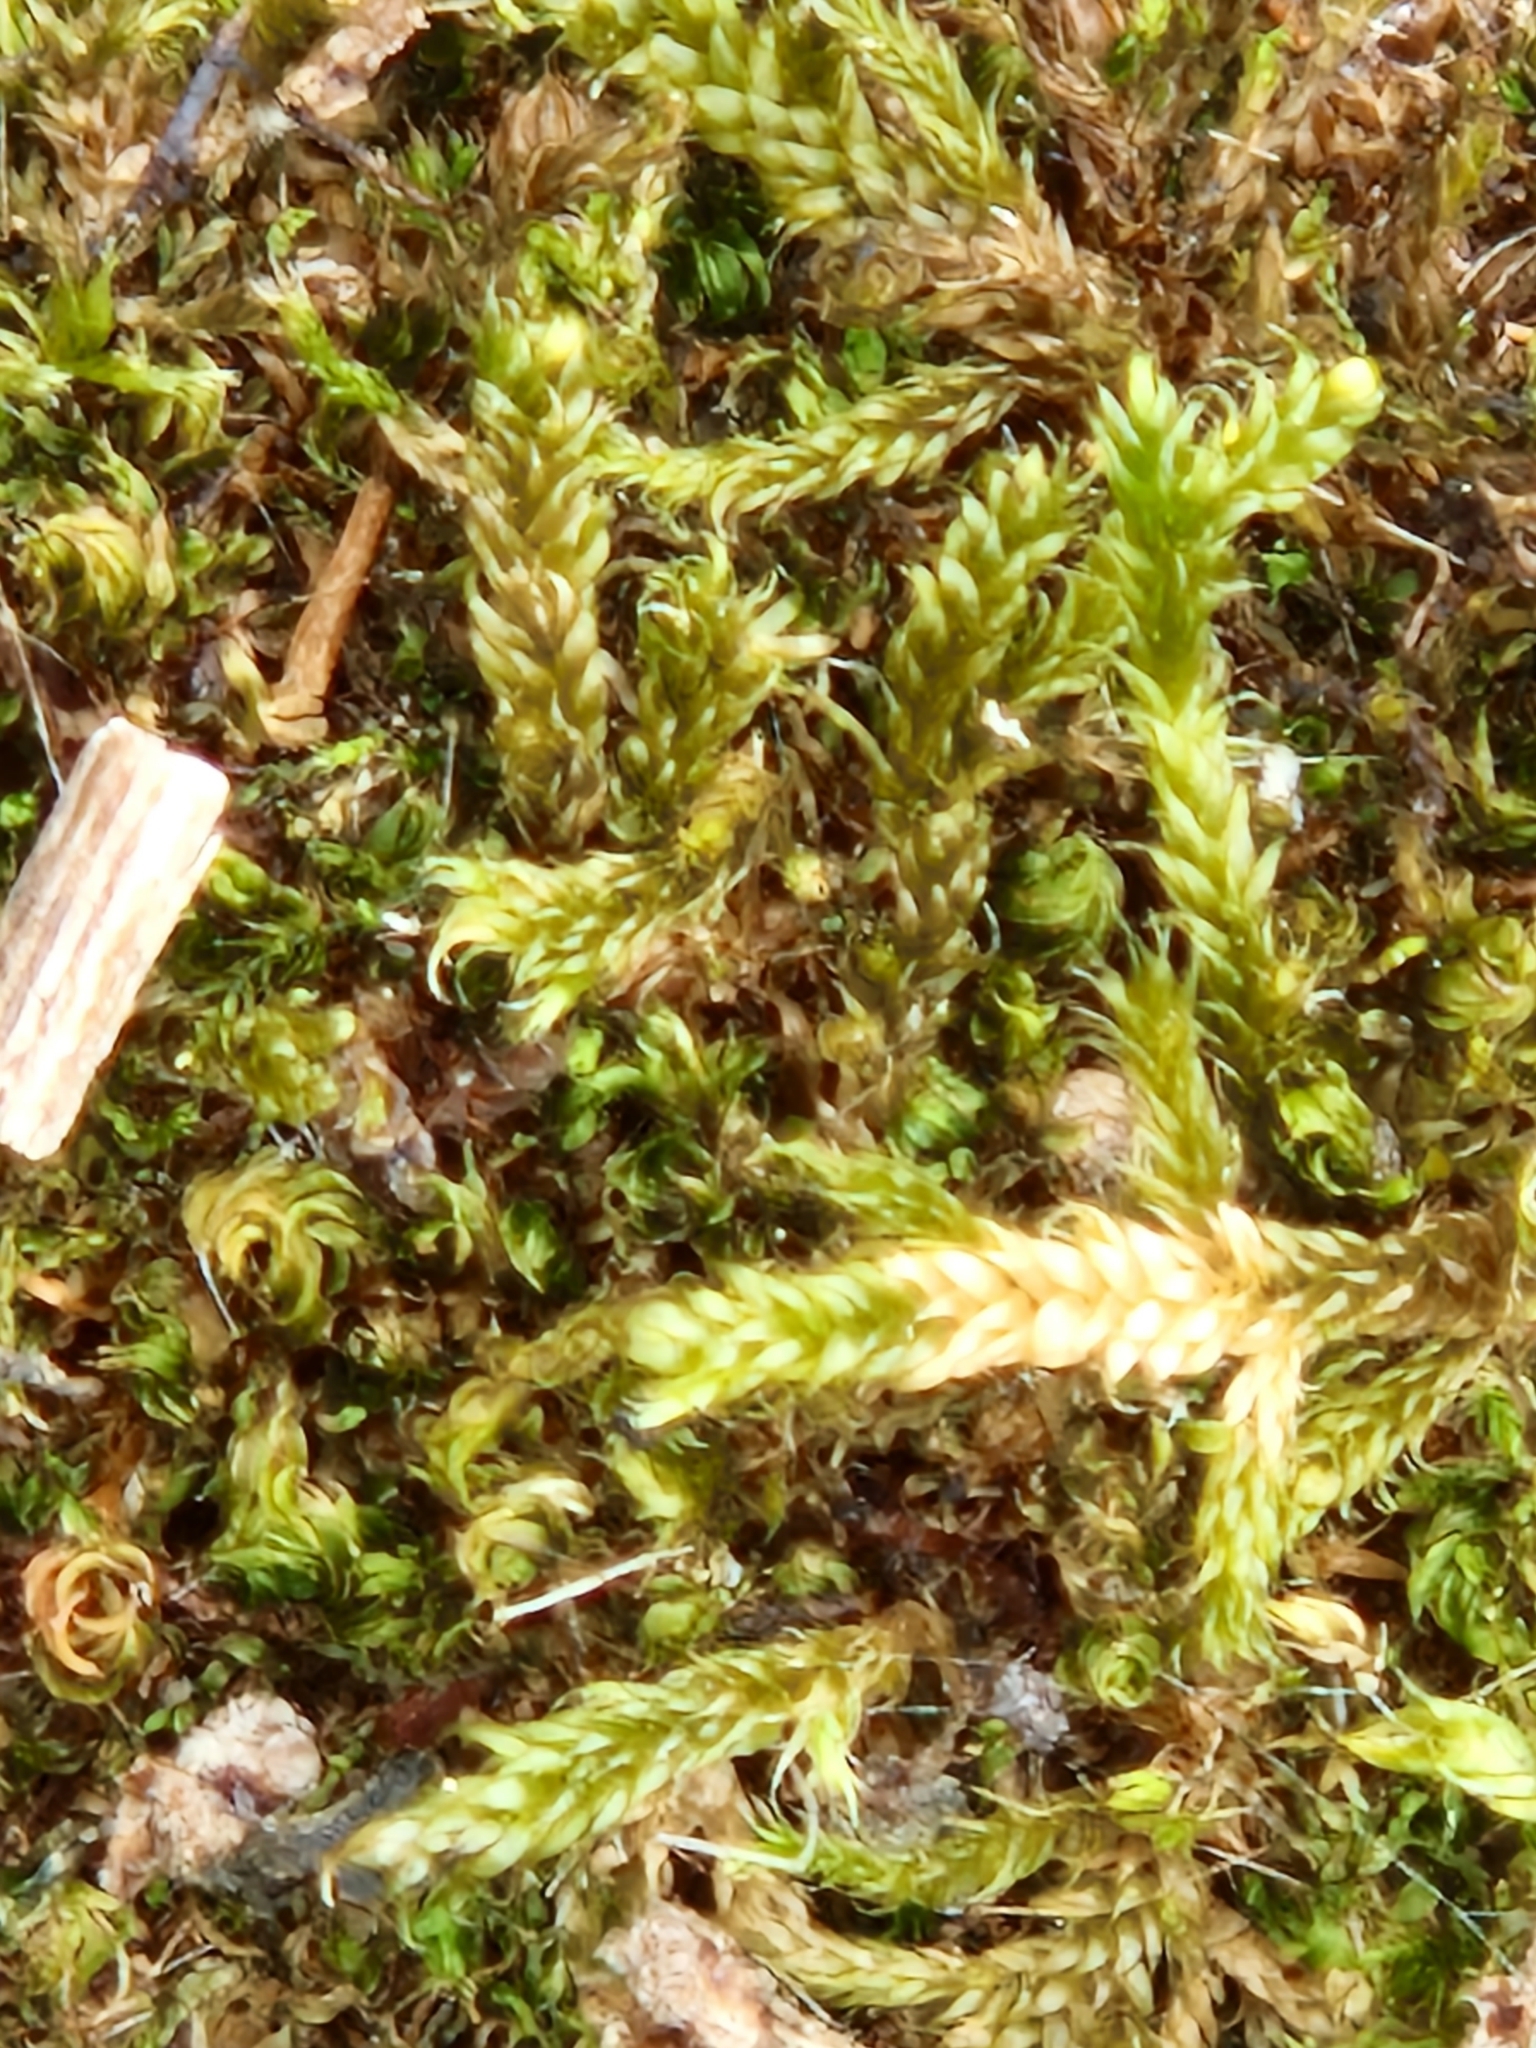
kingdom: Plantae
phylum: Bryophyta
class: Bryopsida
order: Hypnales
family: Hypnaceae
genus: Hypnum
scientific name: Hypnum cupressiforme
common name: Cypress-leaved plait-moss
